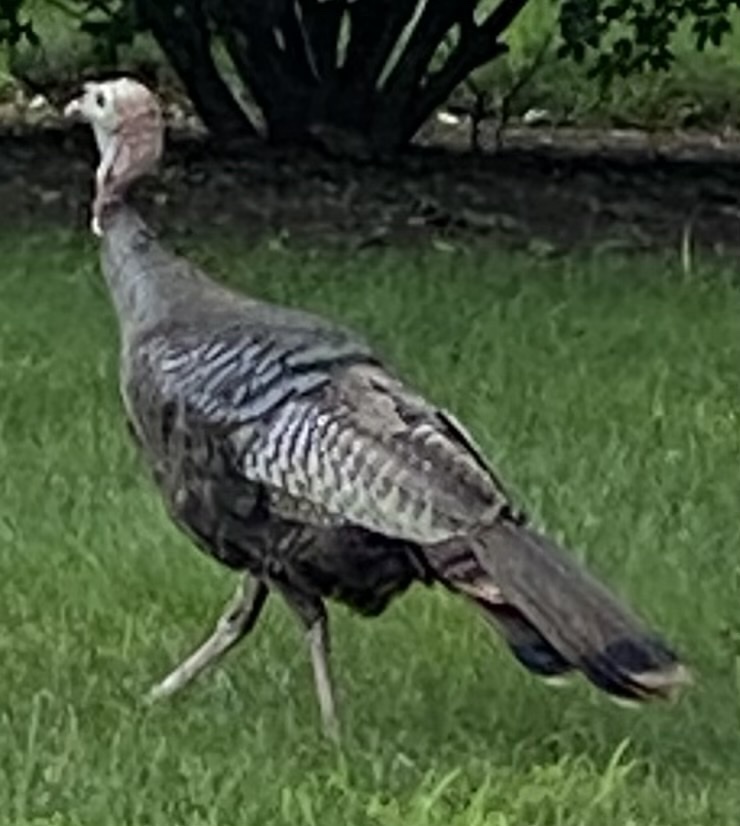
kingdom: Animalia
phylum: Chordata
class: Aves
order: Galliformes
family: Phasianidae
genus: Meleagris
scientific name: Meleagris gallopavo
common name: Wild turkey
